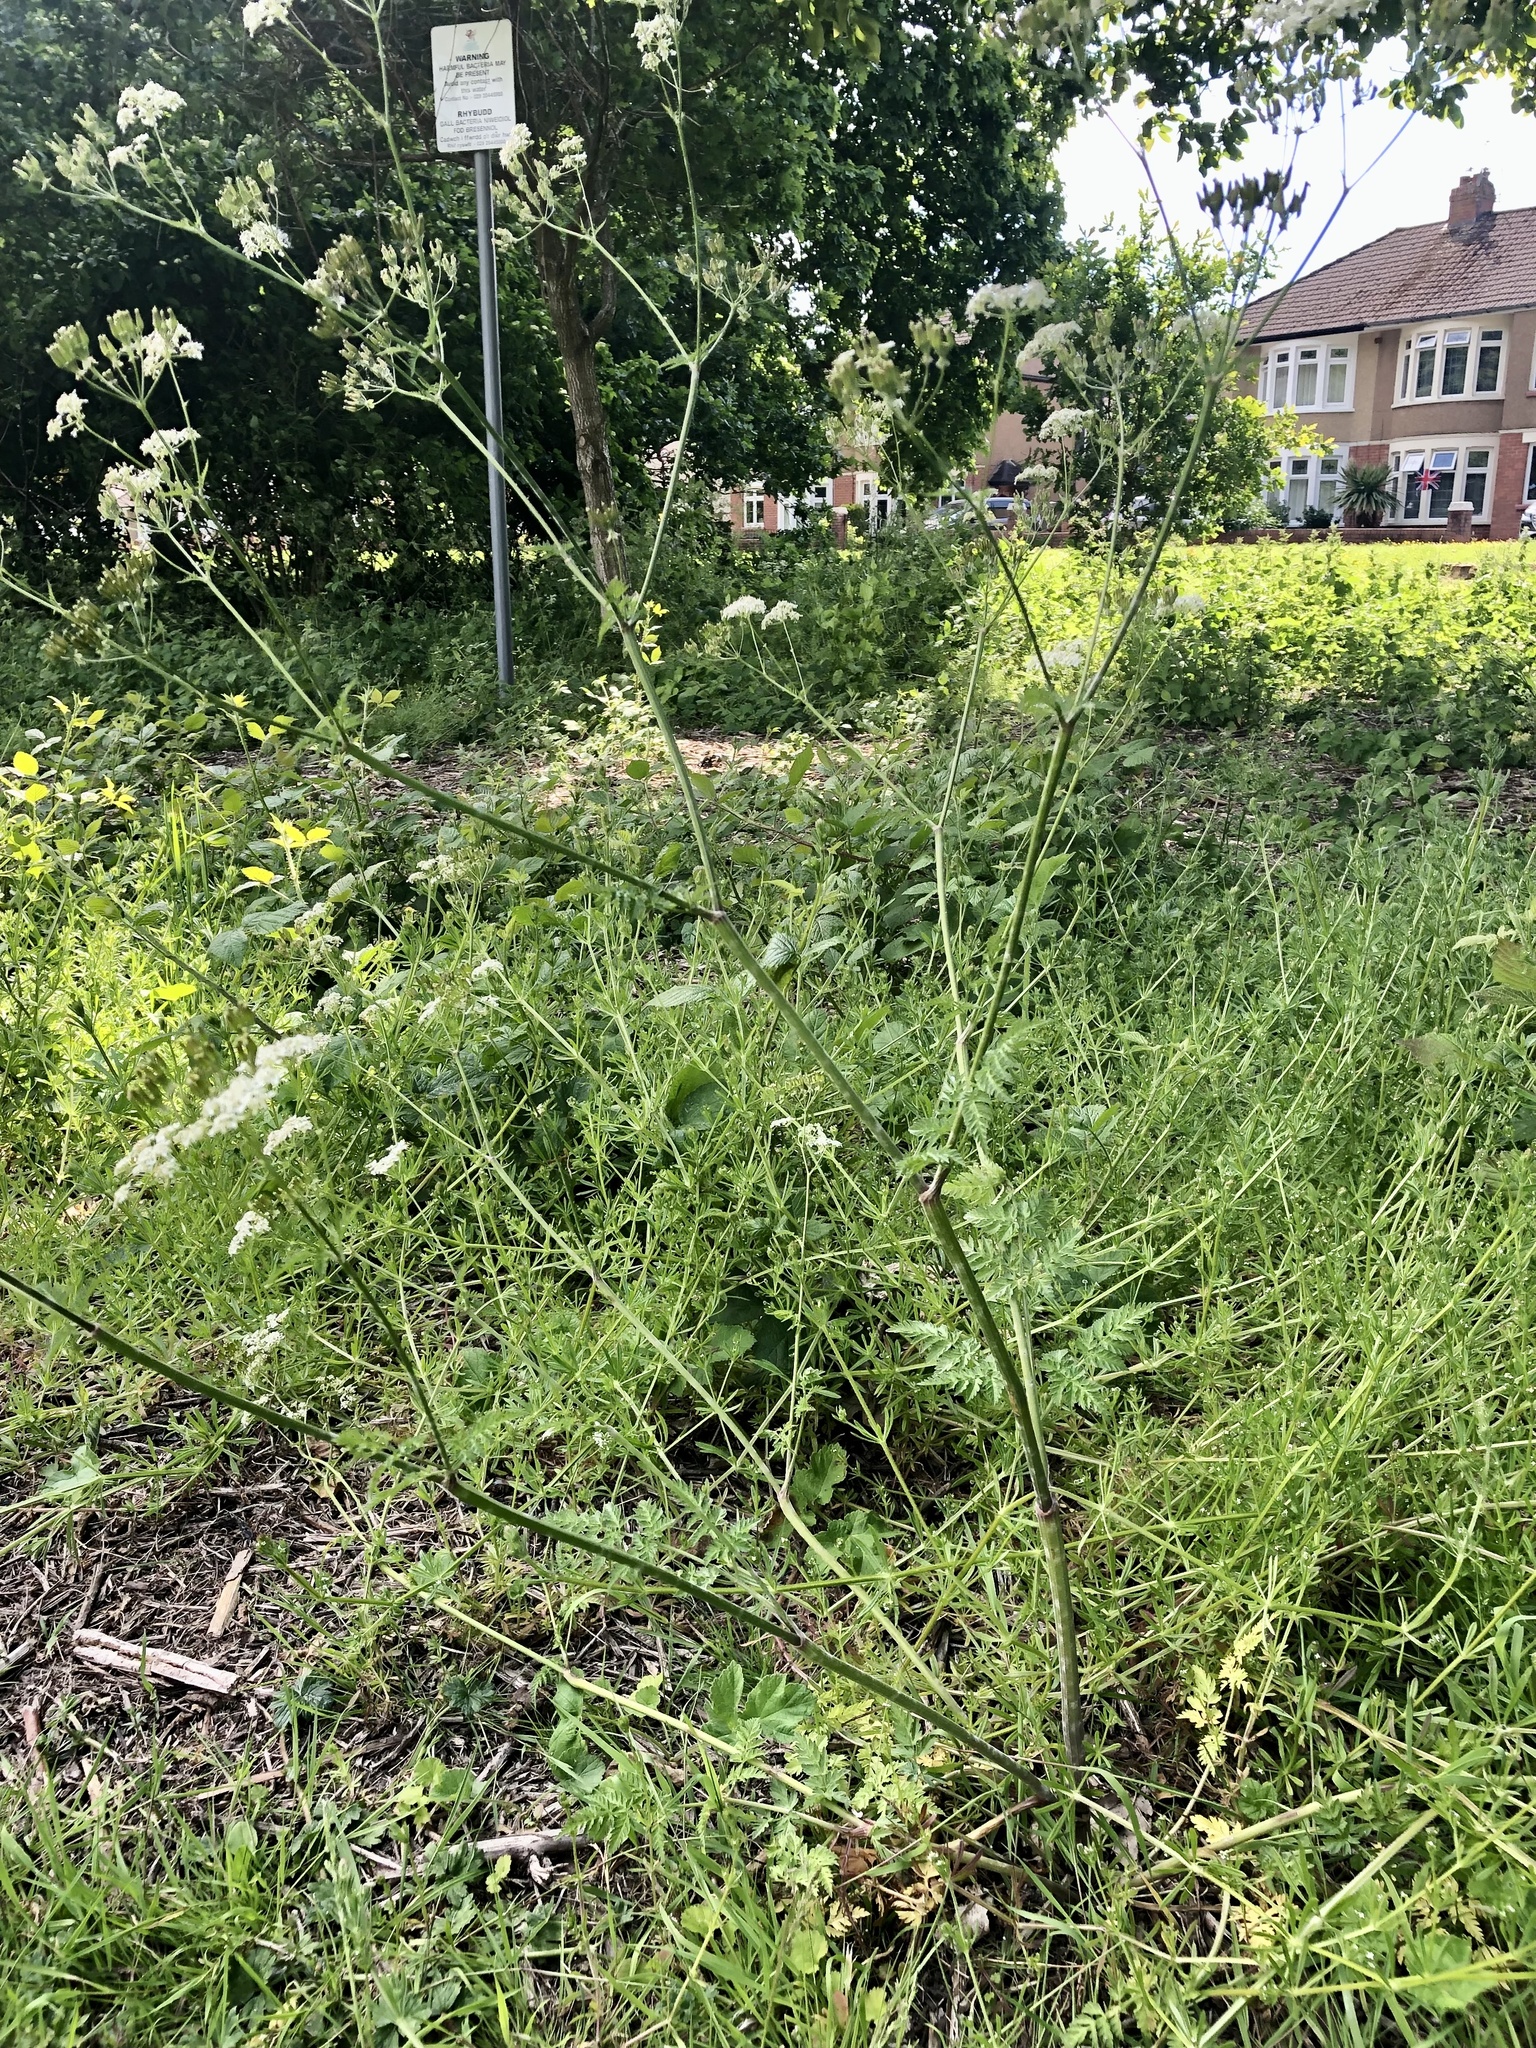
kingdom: Plantae
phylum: Tracheophyta
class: Magnoliopsida
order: Apiales
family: Apiaceae
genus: Anthriscus
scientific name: Anthriscus sylvestris
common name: Cow parsley
